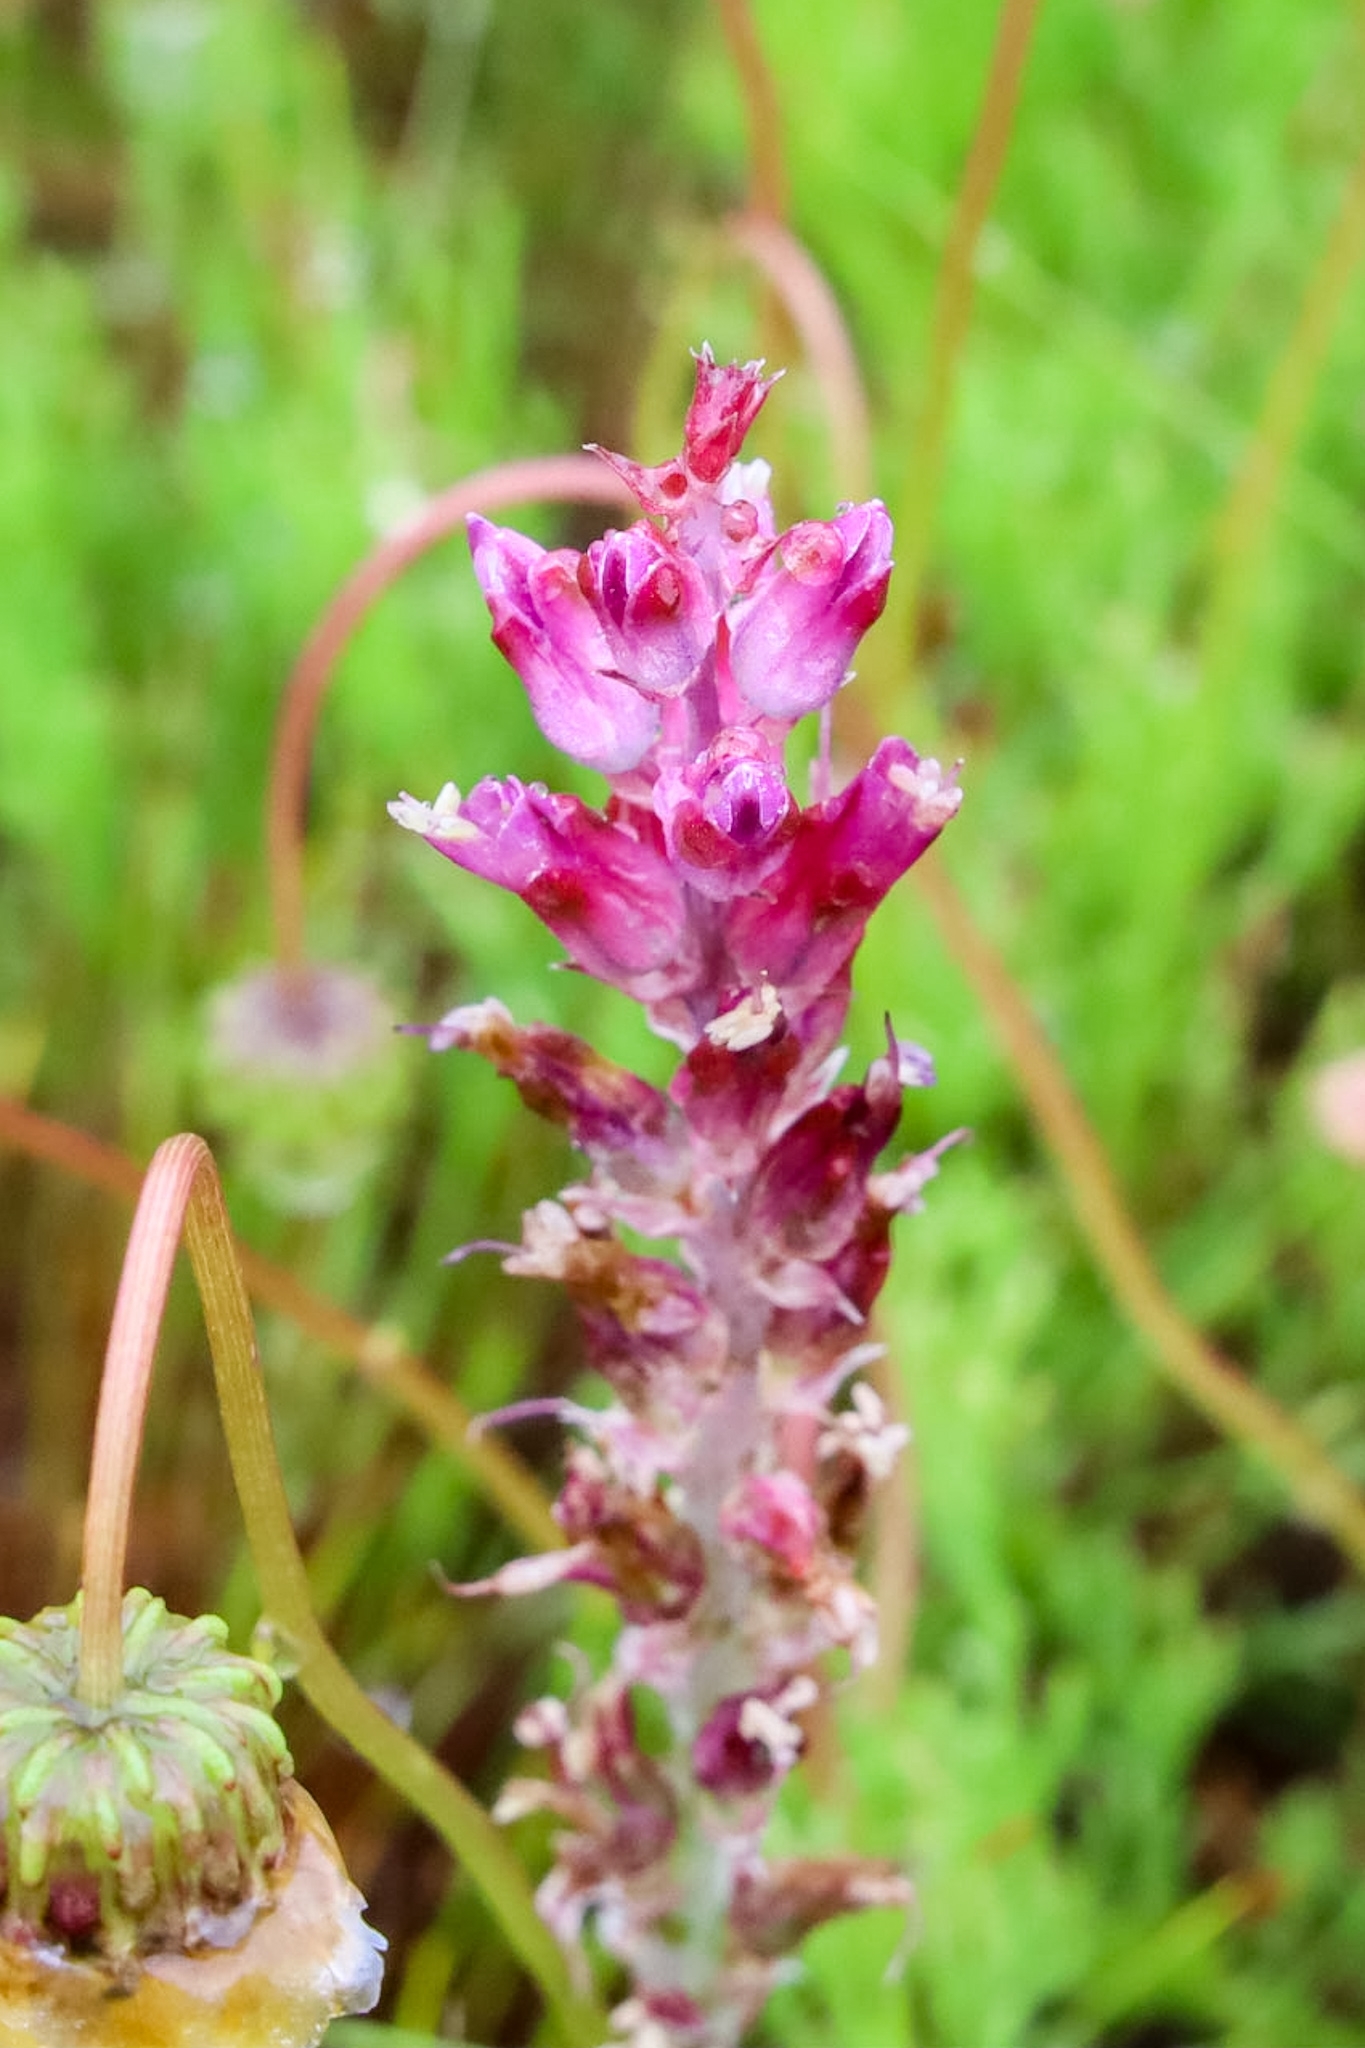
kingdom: Plantae
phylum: Tracheophyta
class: Liliopsida
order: Asparagales
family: Asparagaceae
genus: Lachenalia
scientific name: Lachenalia salteri
